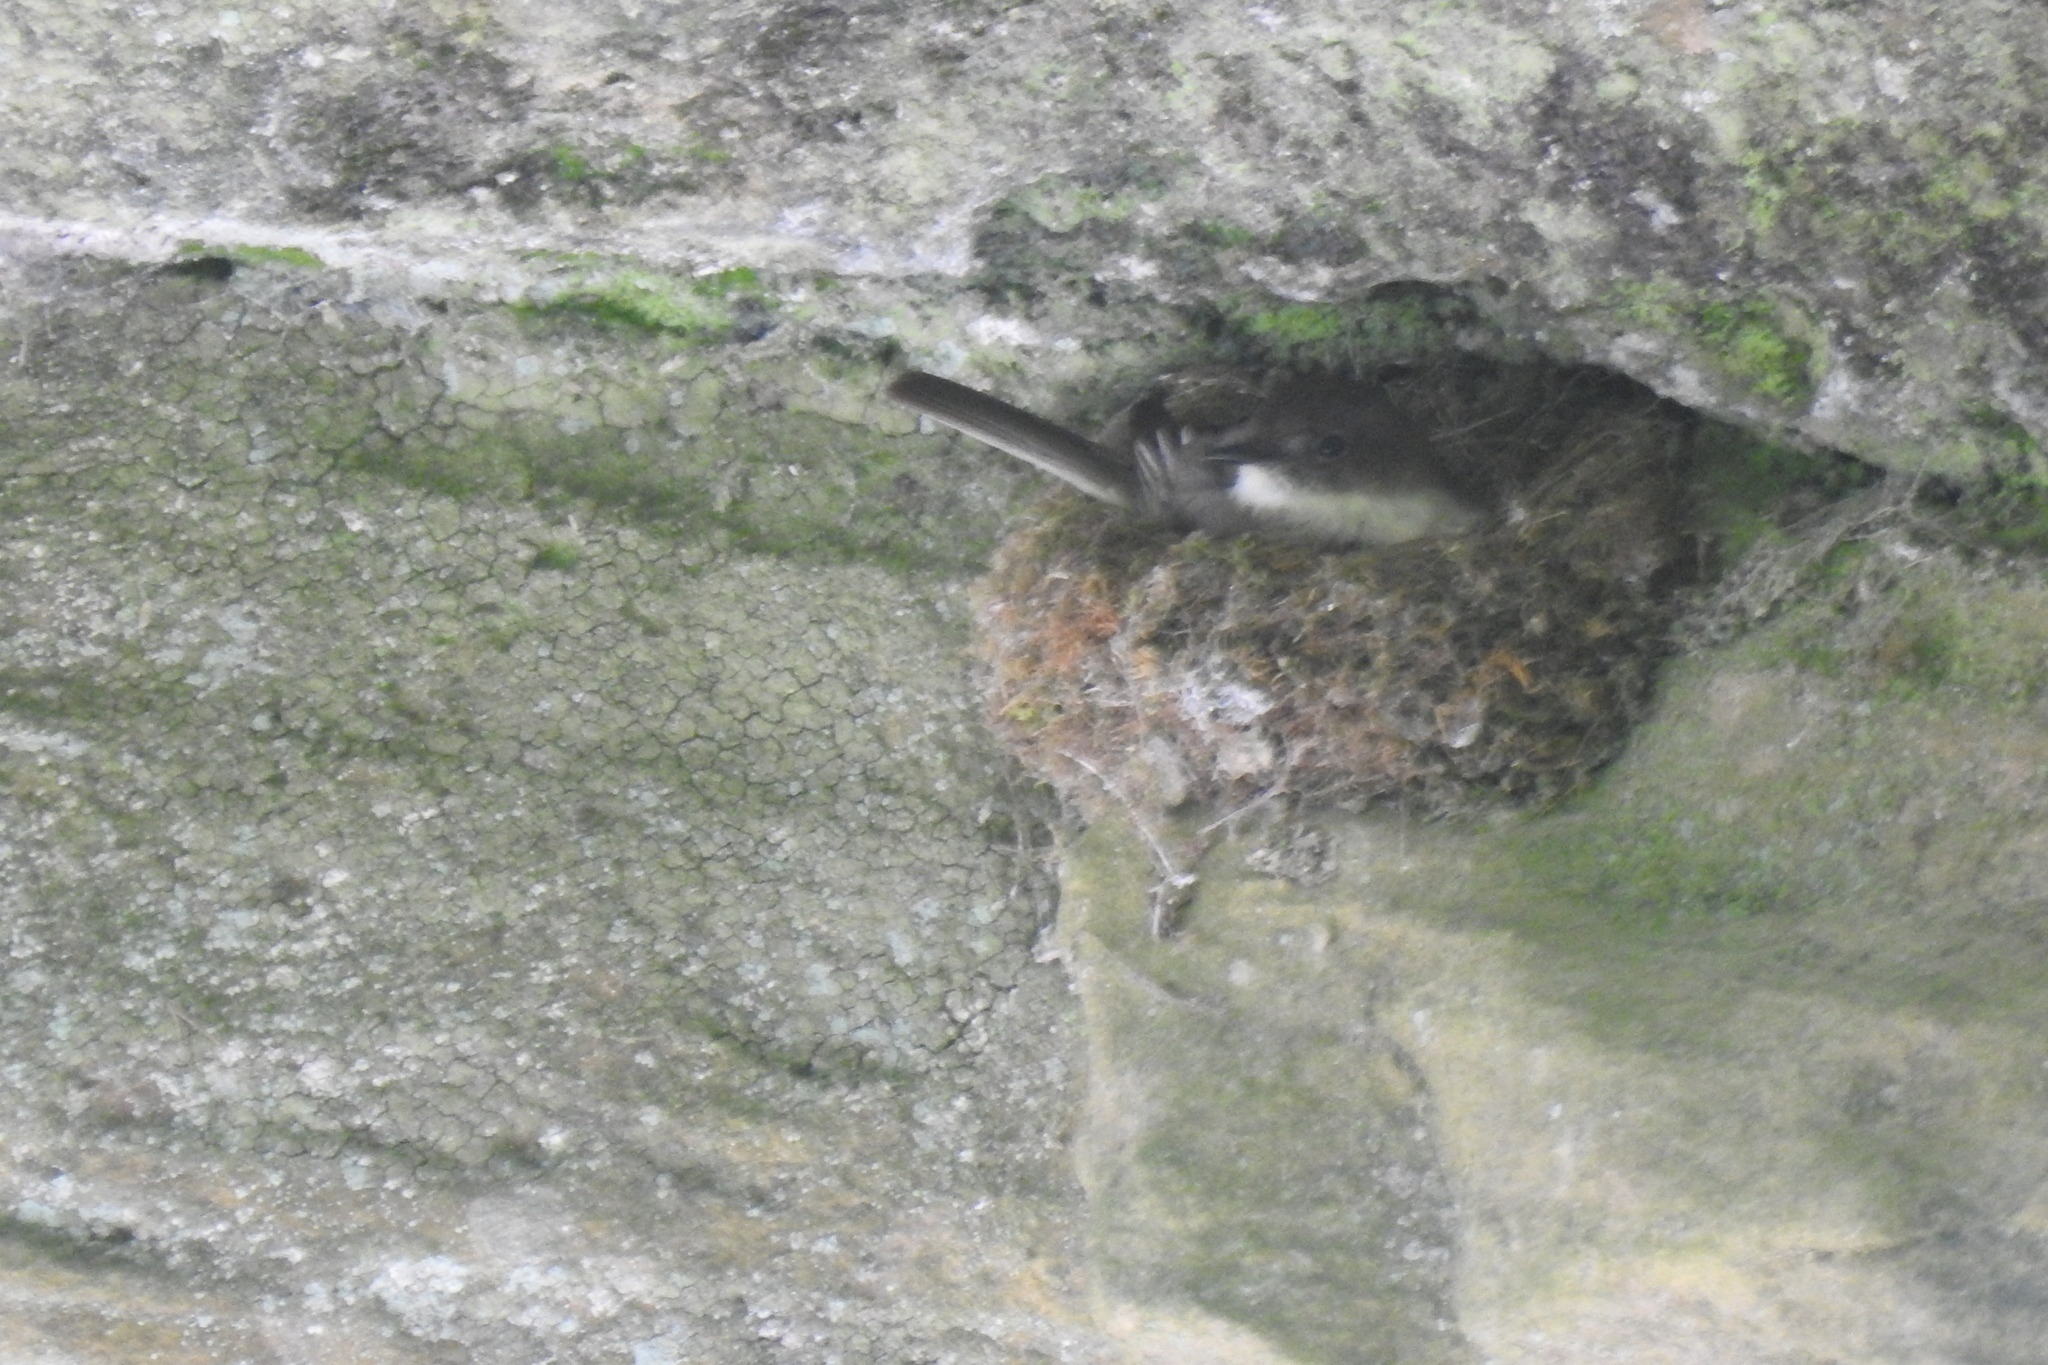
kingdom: Animalia
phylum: Chordata
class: Aves
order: Passeriformes
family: Tyrannidae
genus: Sayornis
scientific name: Sayornis phoebe
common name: Eastern phoebe
